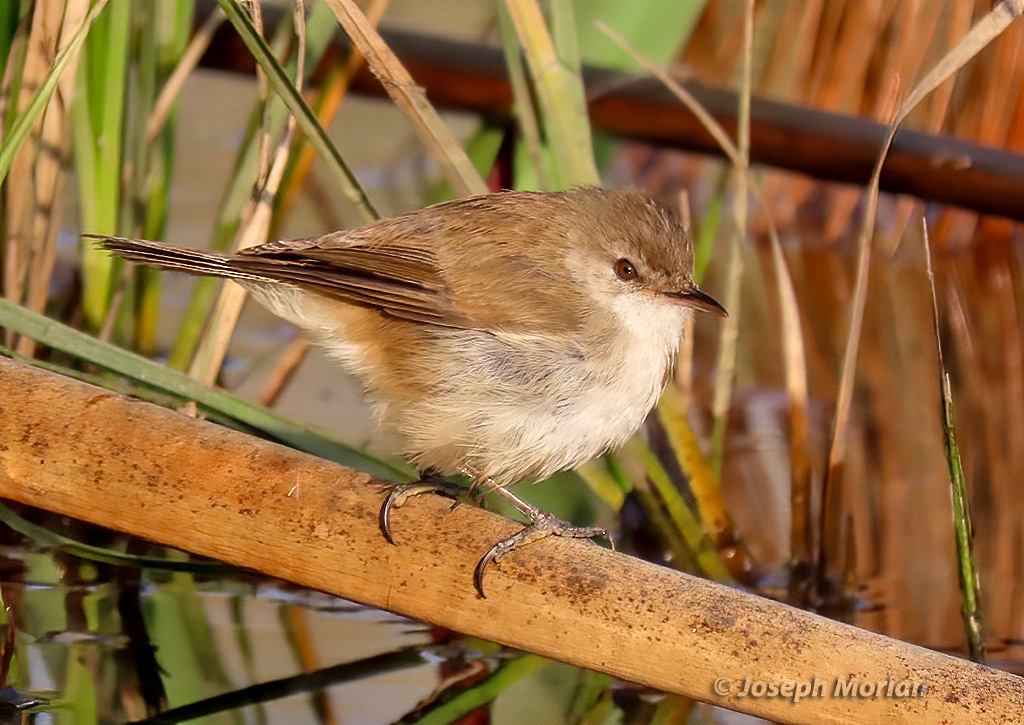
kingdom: Animalia
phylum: Chordata
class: Aves
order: Passeriformes
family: Acrocephalidae
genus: Acrocephalus
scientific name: Acrocephalus gracilirostris
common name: Lesser swamp warbler
